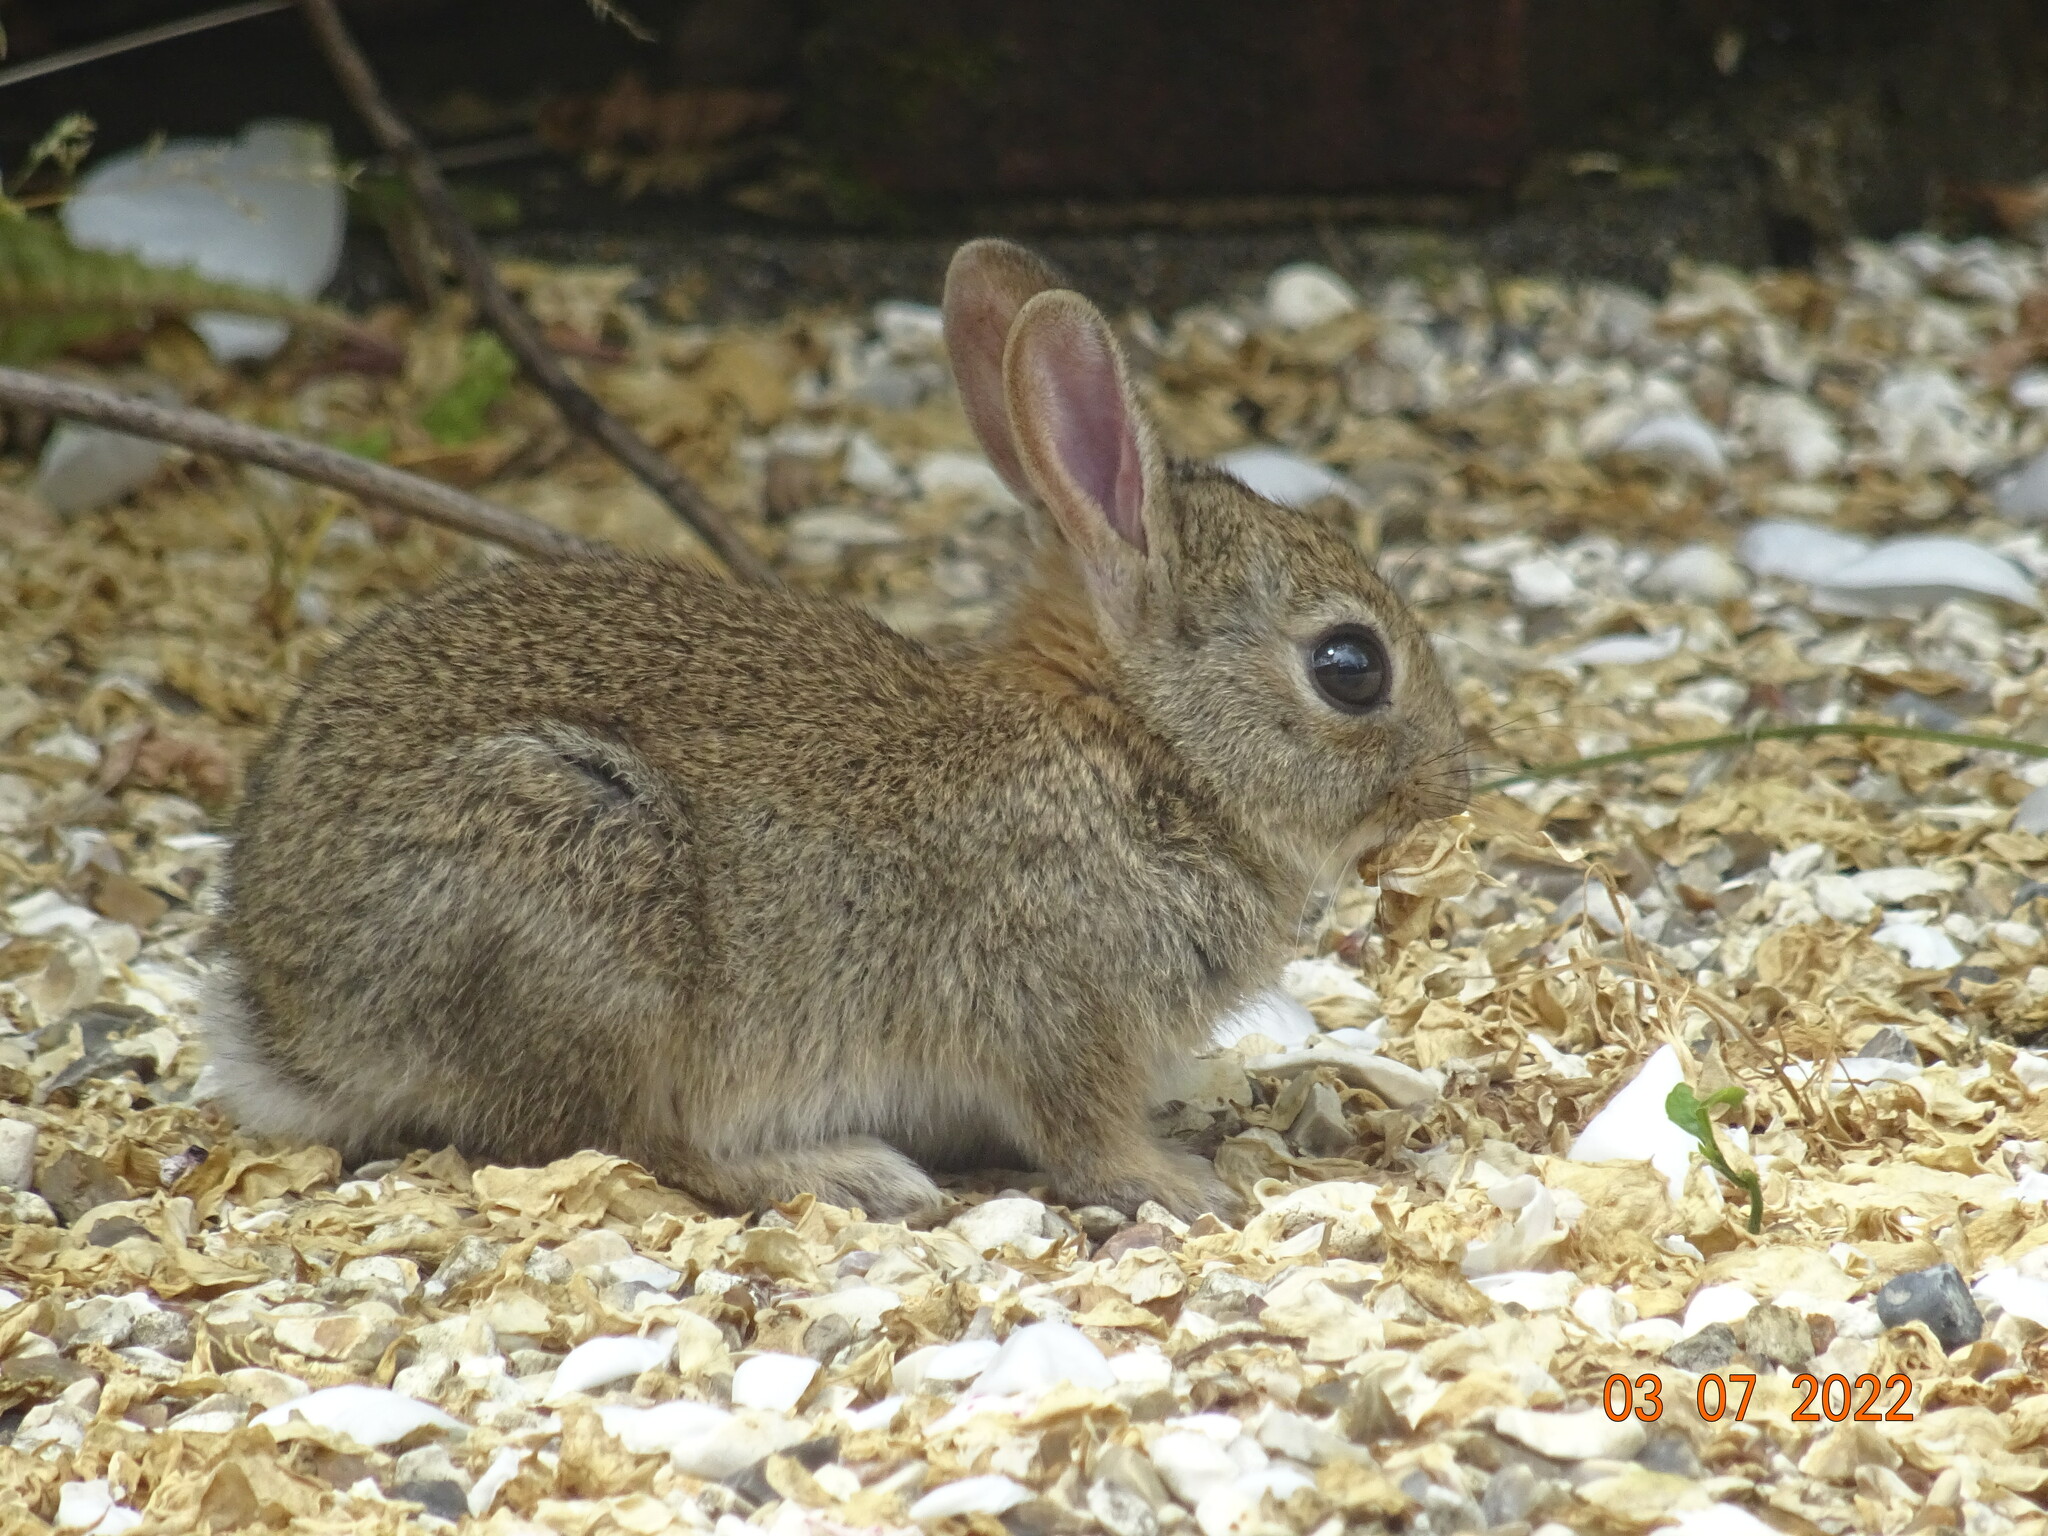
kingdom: Animalia
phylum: Chordata
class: Mammalia
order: Lagomorpha
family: Leporidae
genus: Oryctolagus
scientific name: Oryctolagus cuniculus
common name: European rabbit
